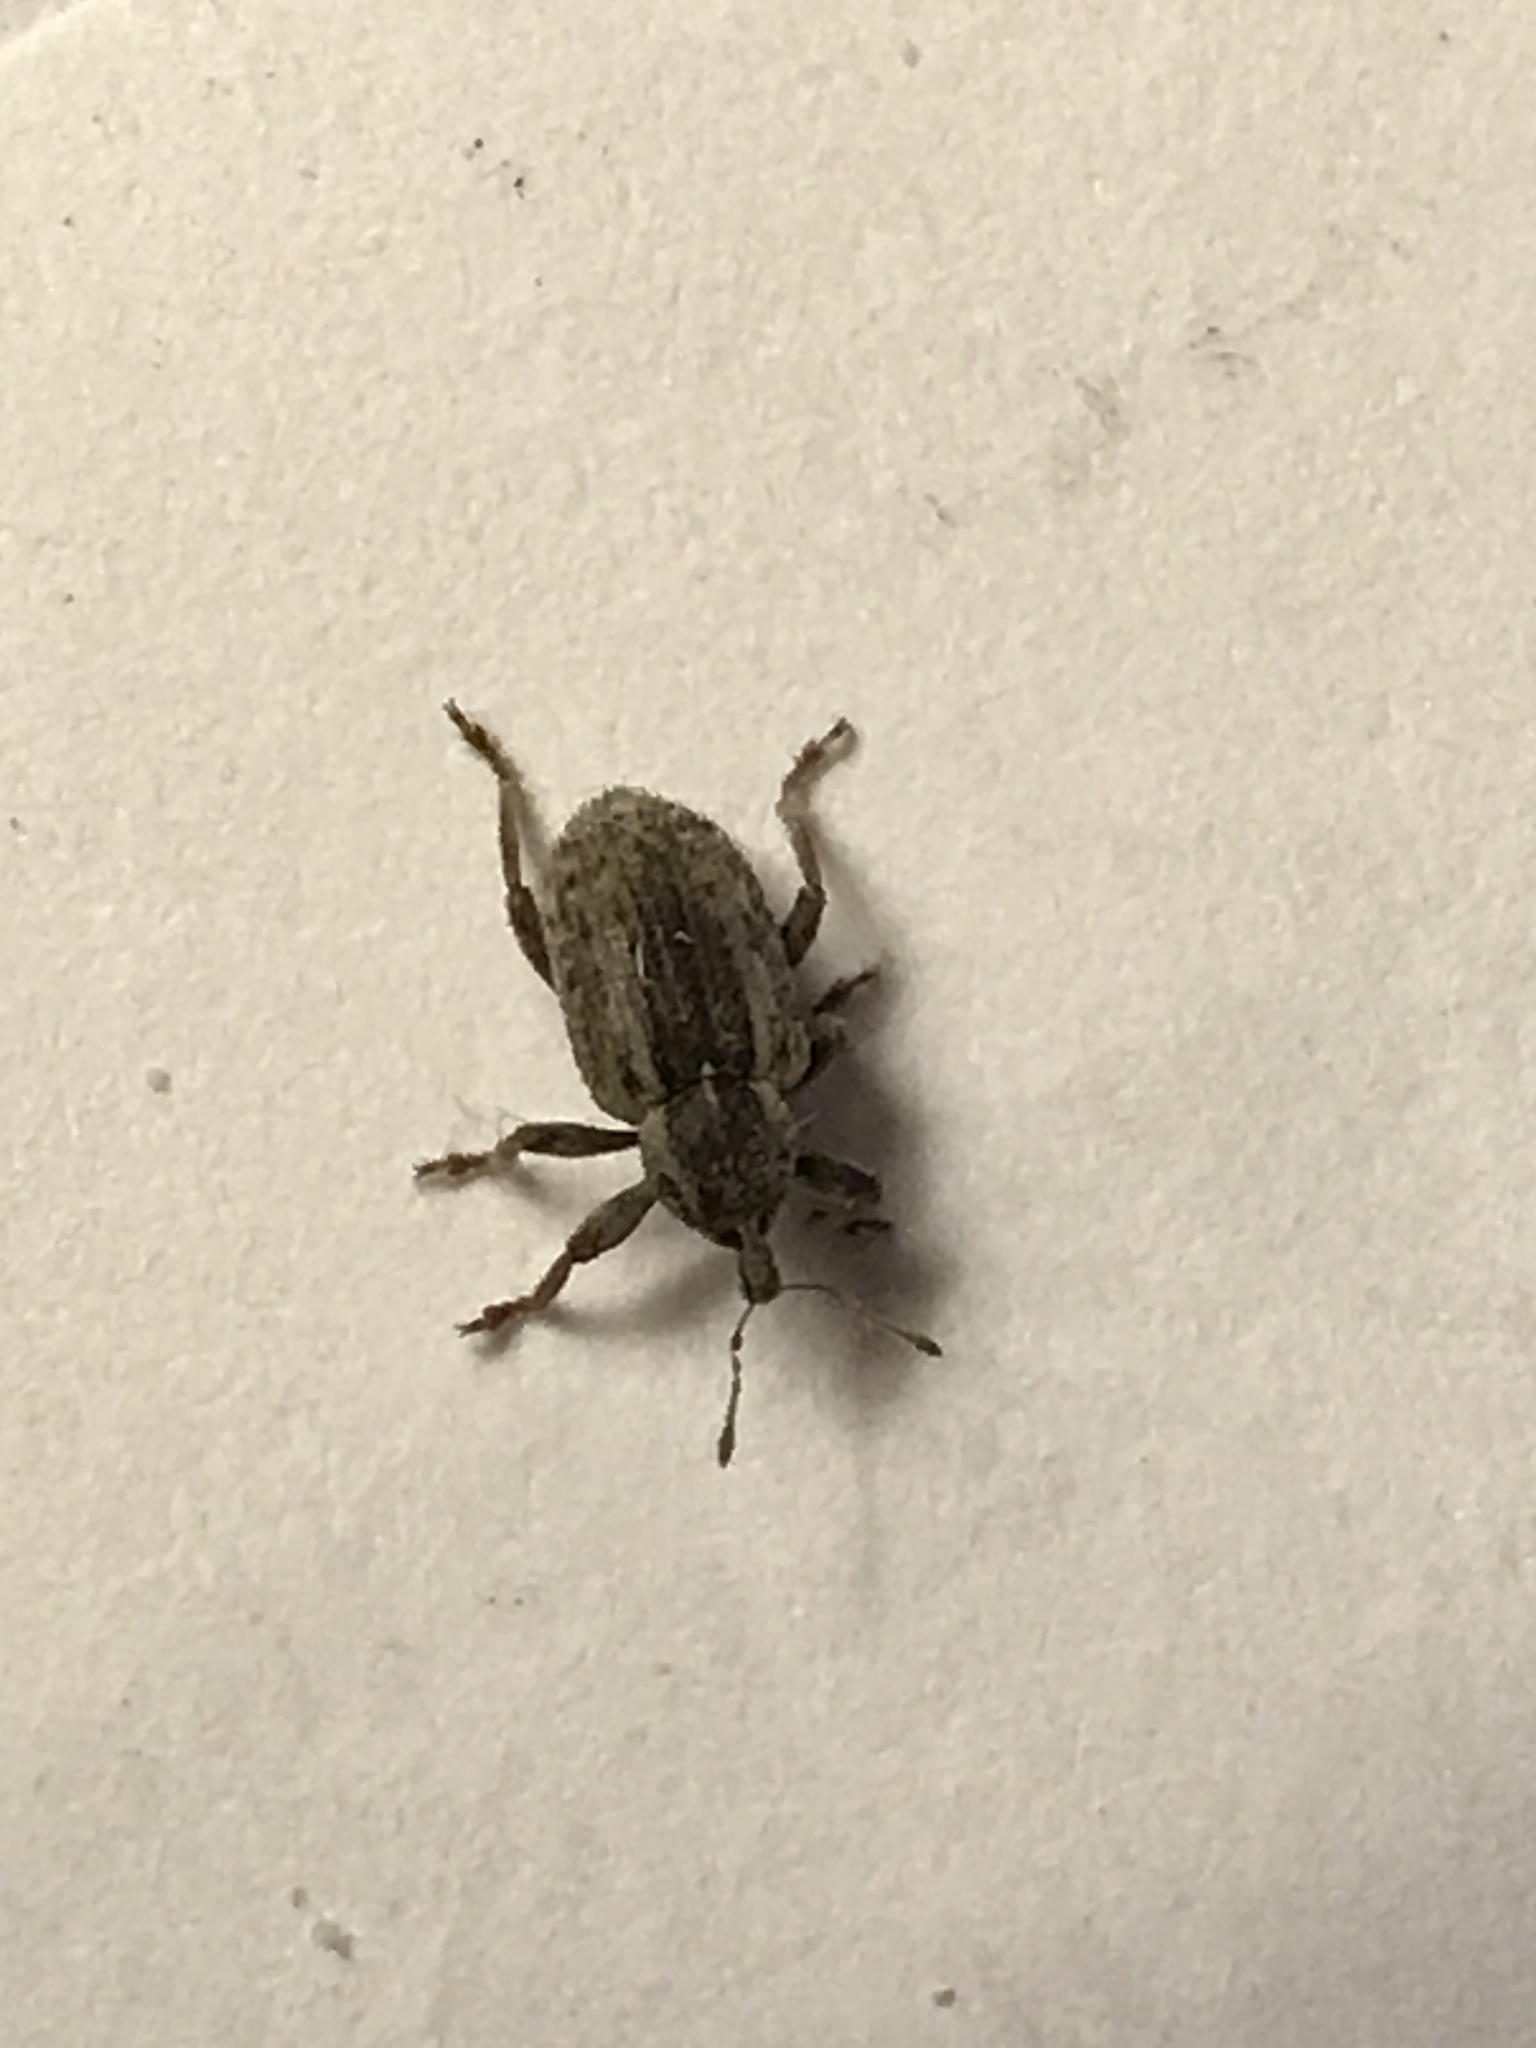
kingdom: Animalia
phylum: Arthropoda
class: Insecta
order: Coleoptera
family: Curculionidae
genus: Hypera
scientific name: Hypera postica
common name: Weevil
